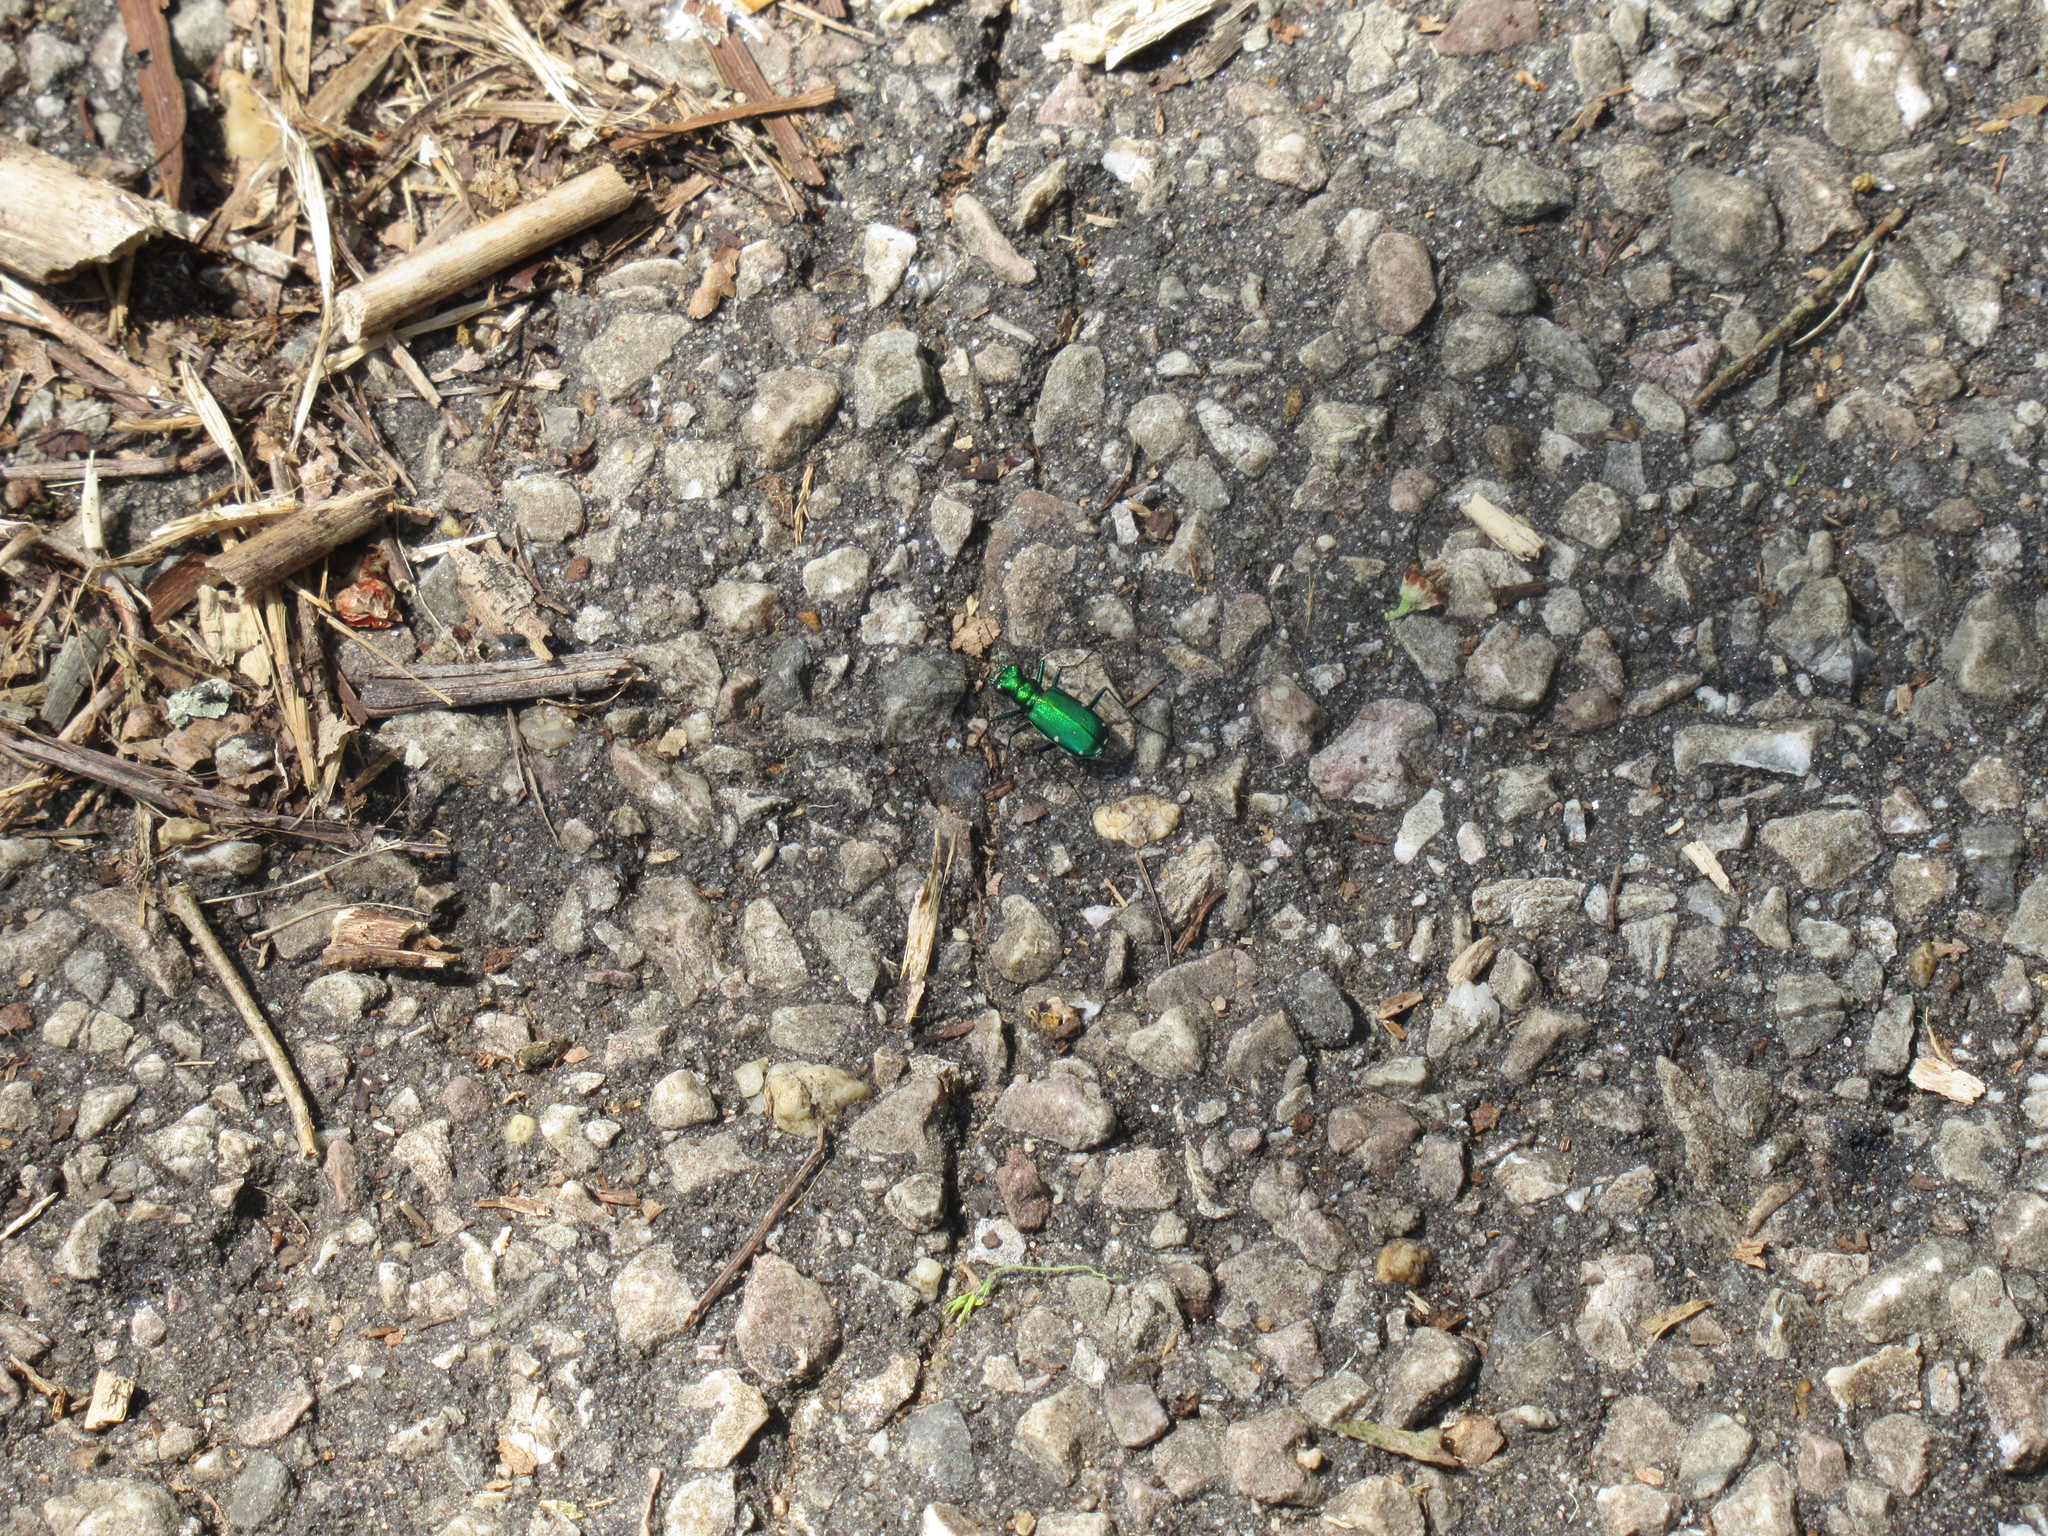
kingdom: Animalia
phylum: Arthropoda
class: Insecta
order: Coleoptera
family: Carabidae
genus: Cicindela
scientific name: Cicindela sexguttata
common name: Six-spotted tiger beetle
